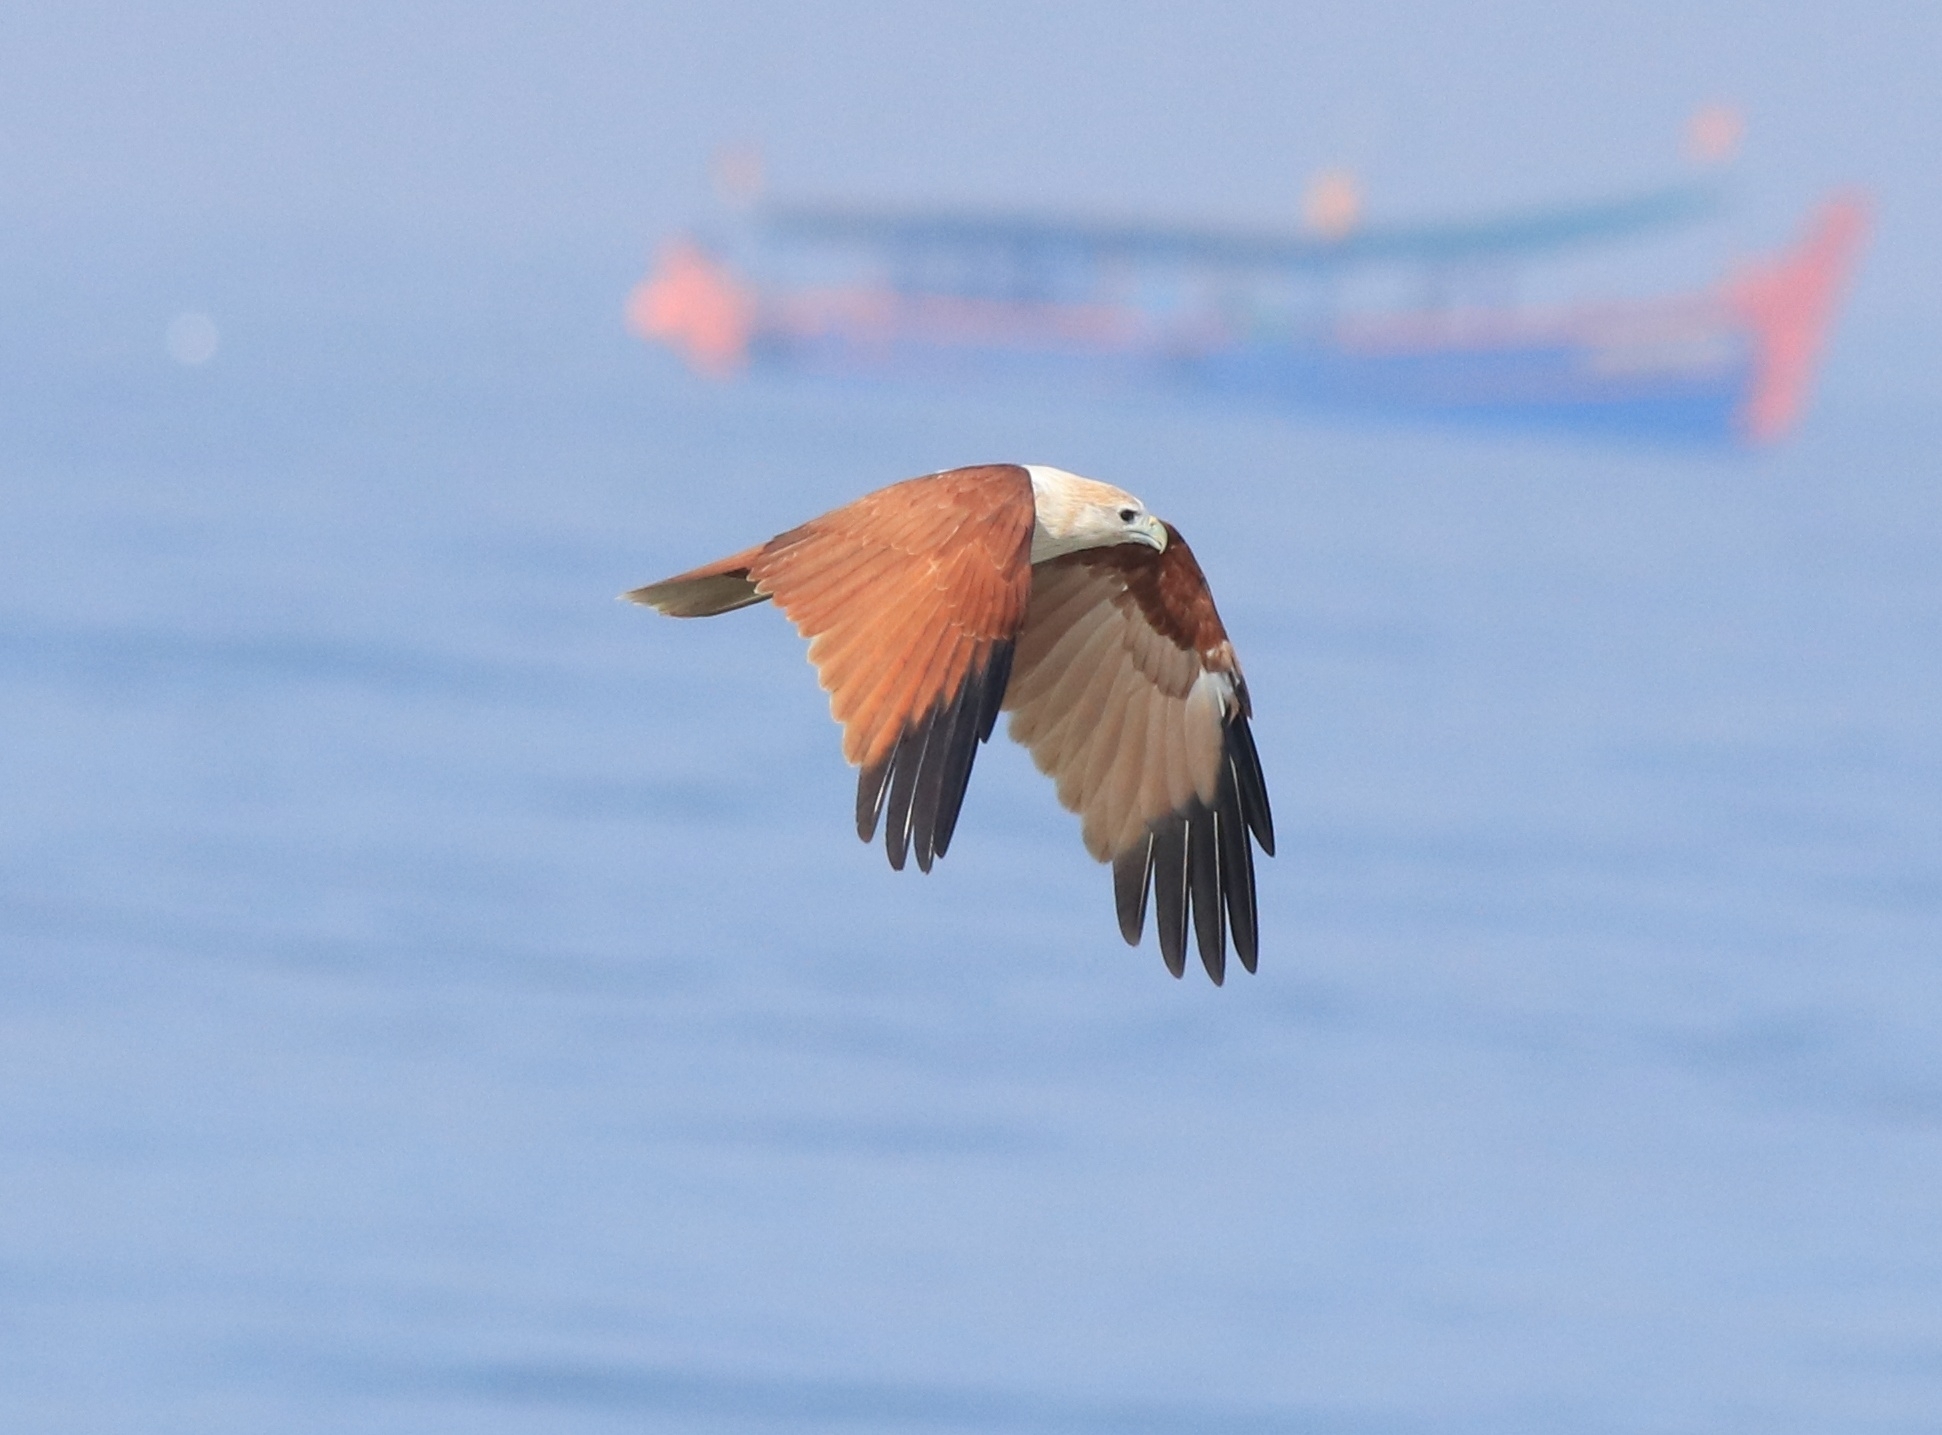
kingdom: Animalia
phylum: Chordata
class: Aves
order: Accipitriformes
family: Accipitridae
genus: Haliastur
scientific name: Haliastur indus
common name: Brahminy kite
